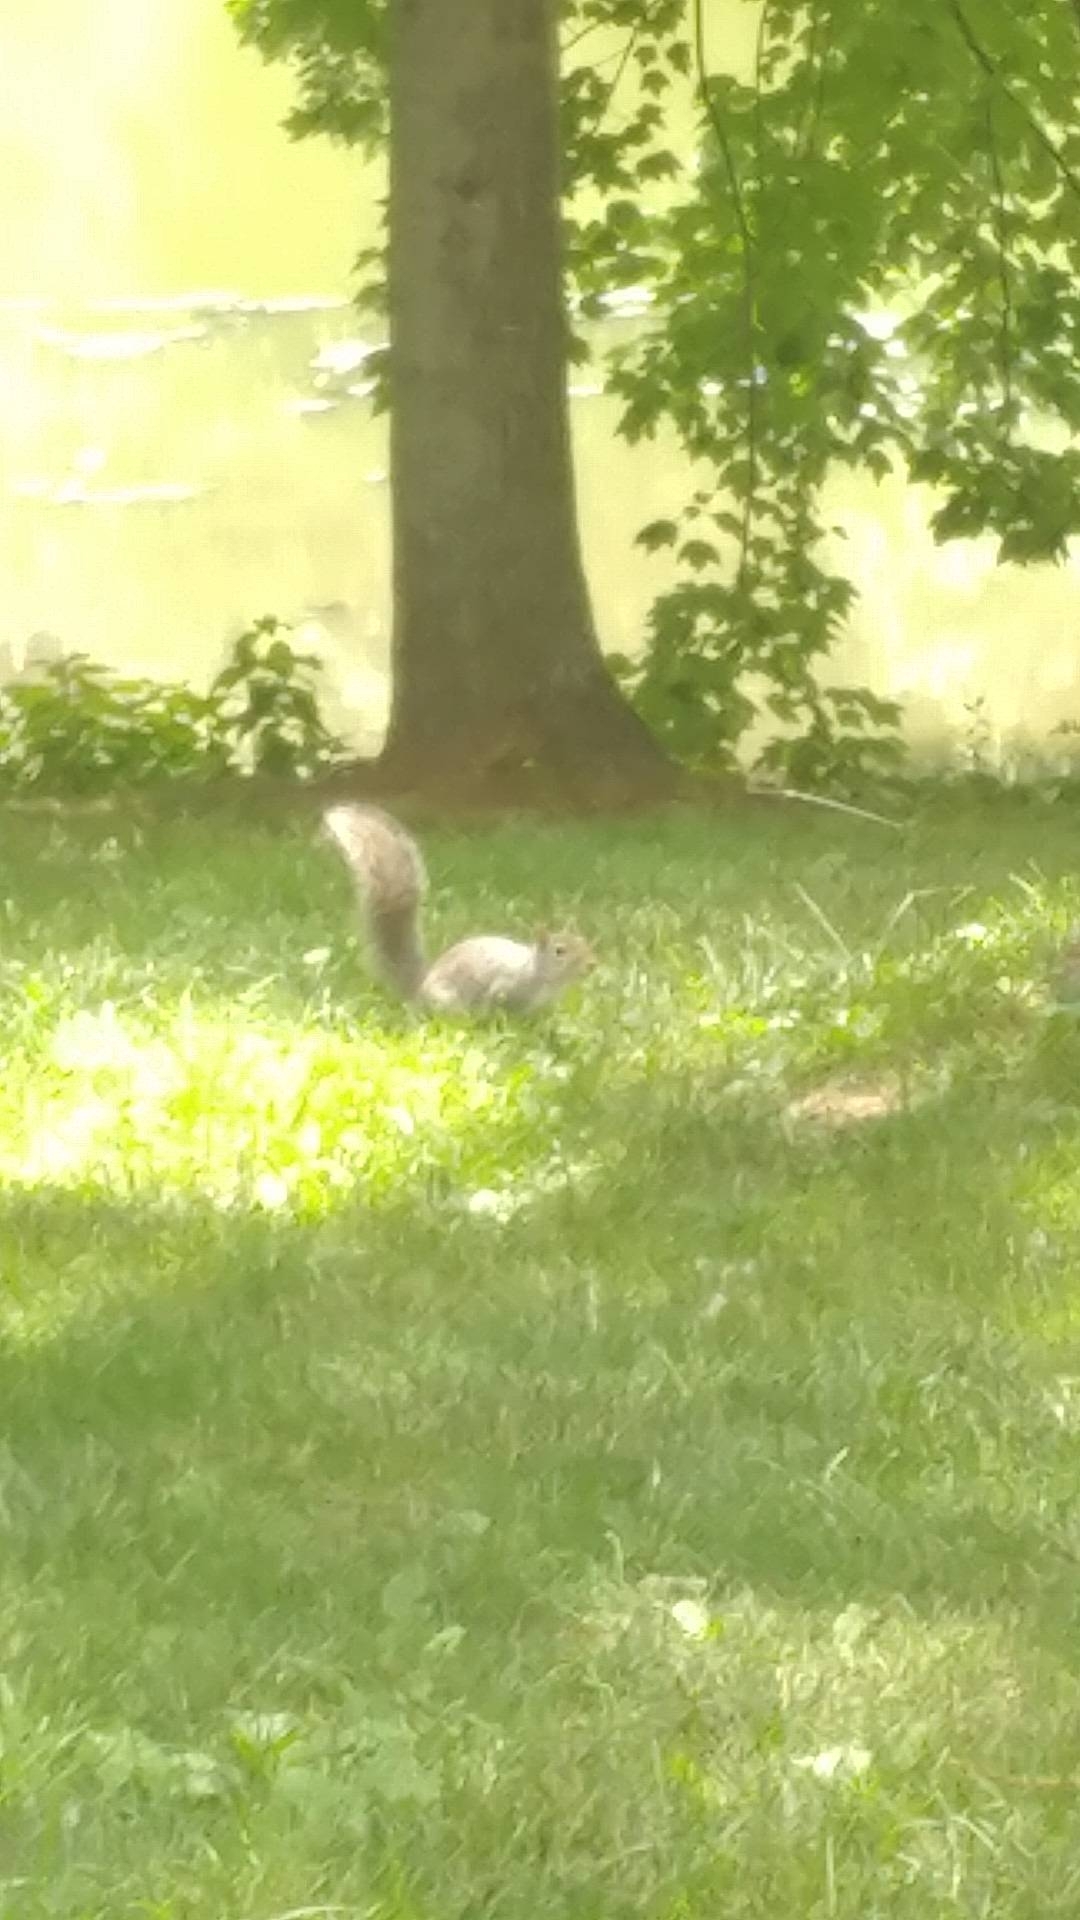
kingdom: Animalia
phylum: Chordata
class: Mammalia
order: Rodentia
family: Sciuridae
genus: Sciurus
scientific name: Sciurus carolinensis
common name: Eastern gray squirrel
